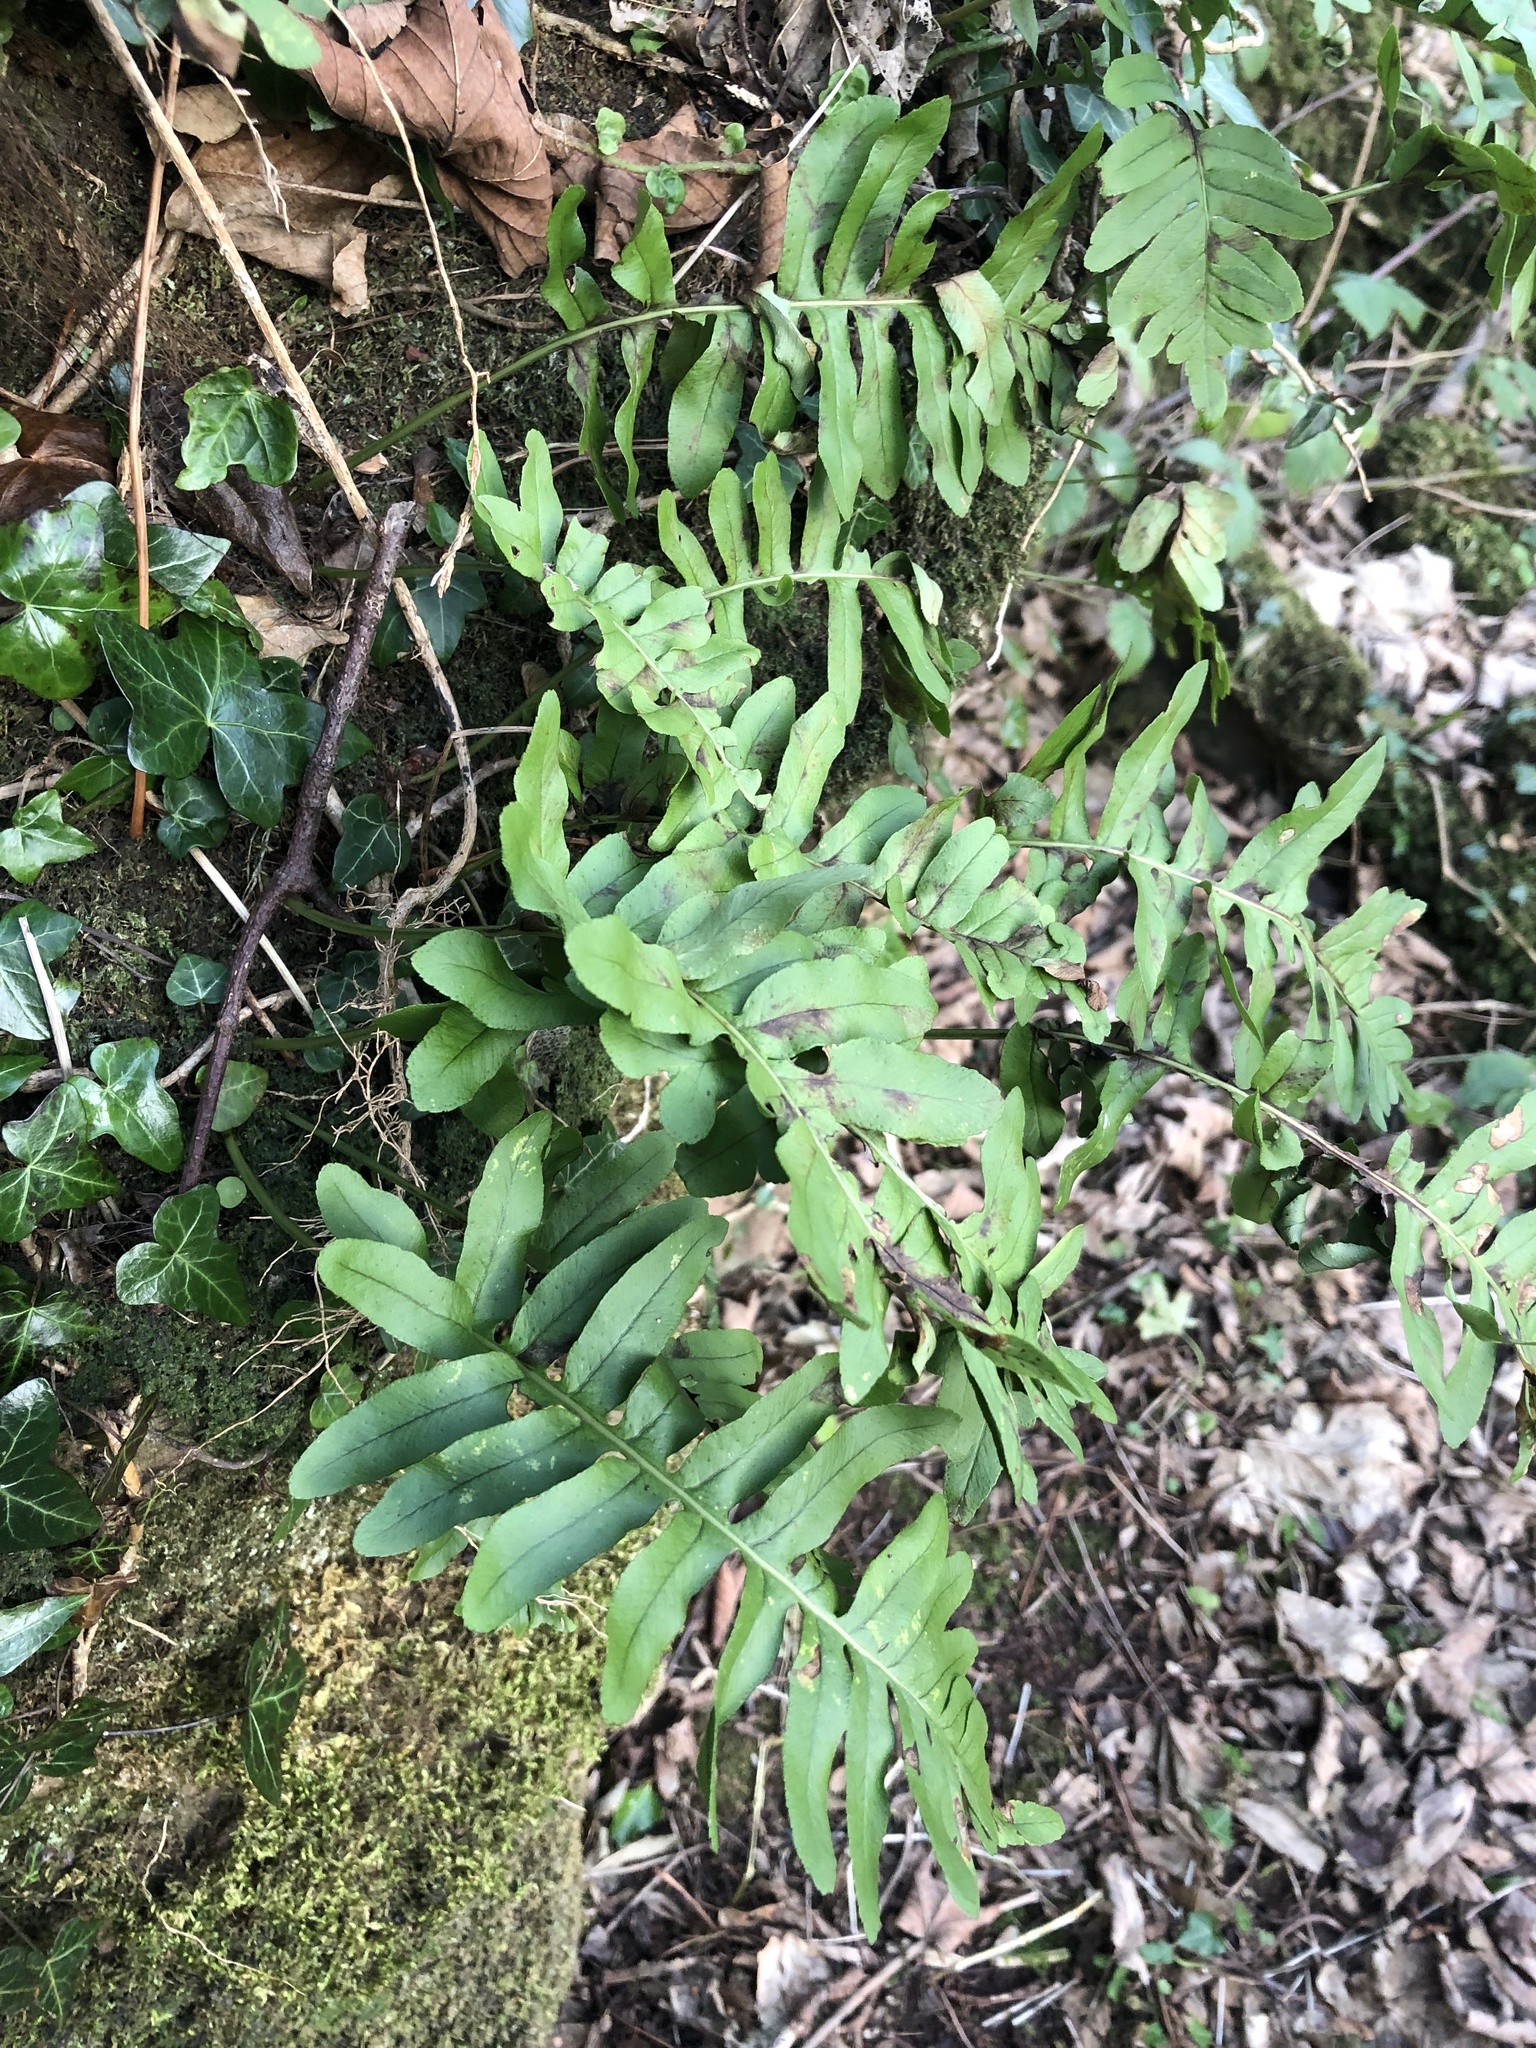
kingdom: Plantae
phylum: Tracheophyta
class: Polypodiopsida
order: Polypodiales
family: Polypodiaceae
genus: Polypodium
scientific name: Polypodium vulgare
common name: Common polypody
